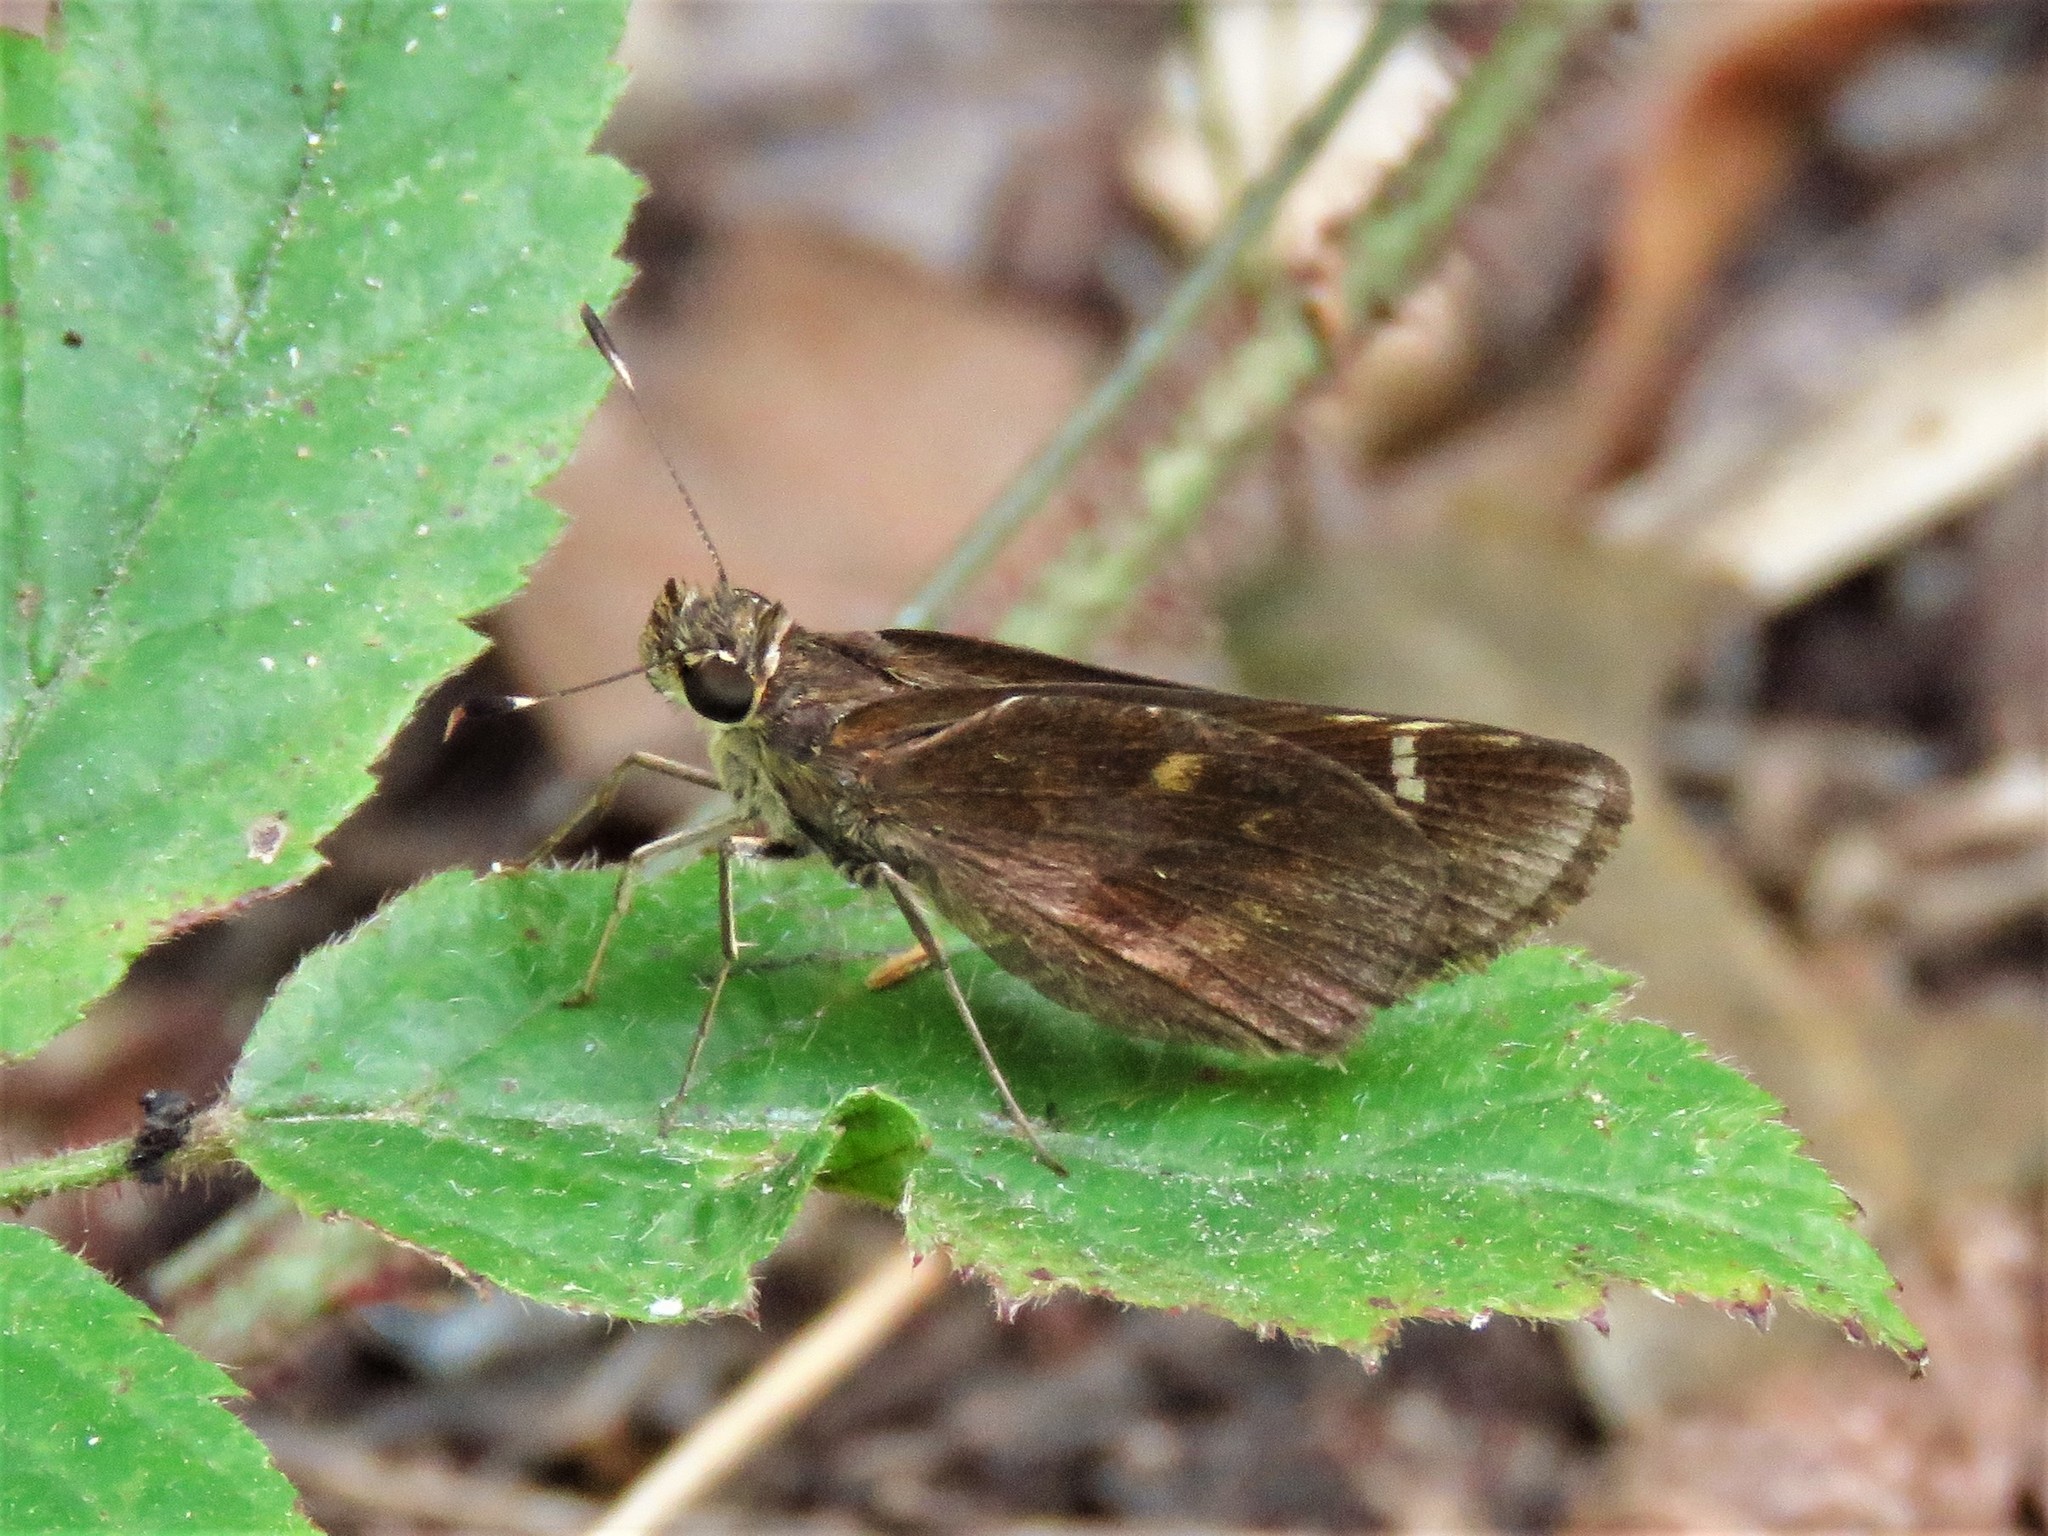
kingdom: Animalia
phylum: Arthropoda
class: Insecta
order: Lepidoptera
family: Hesperiidae
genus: Lerema
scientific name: Lerema accius
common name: Clouded skipper
